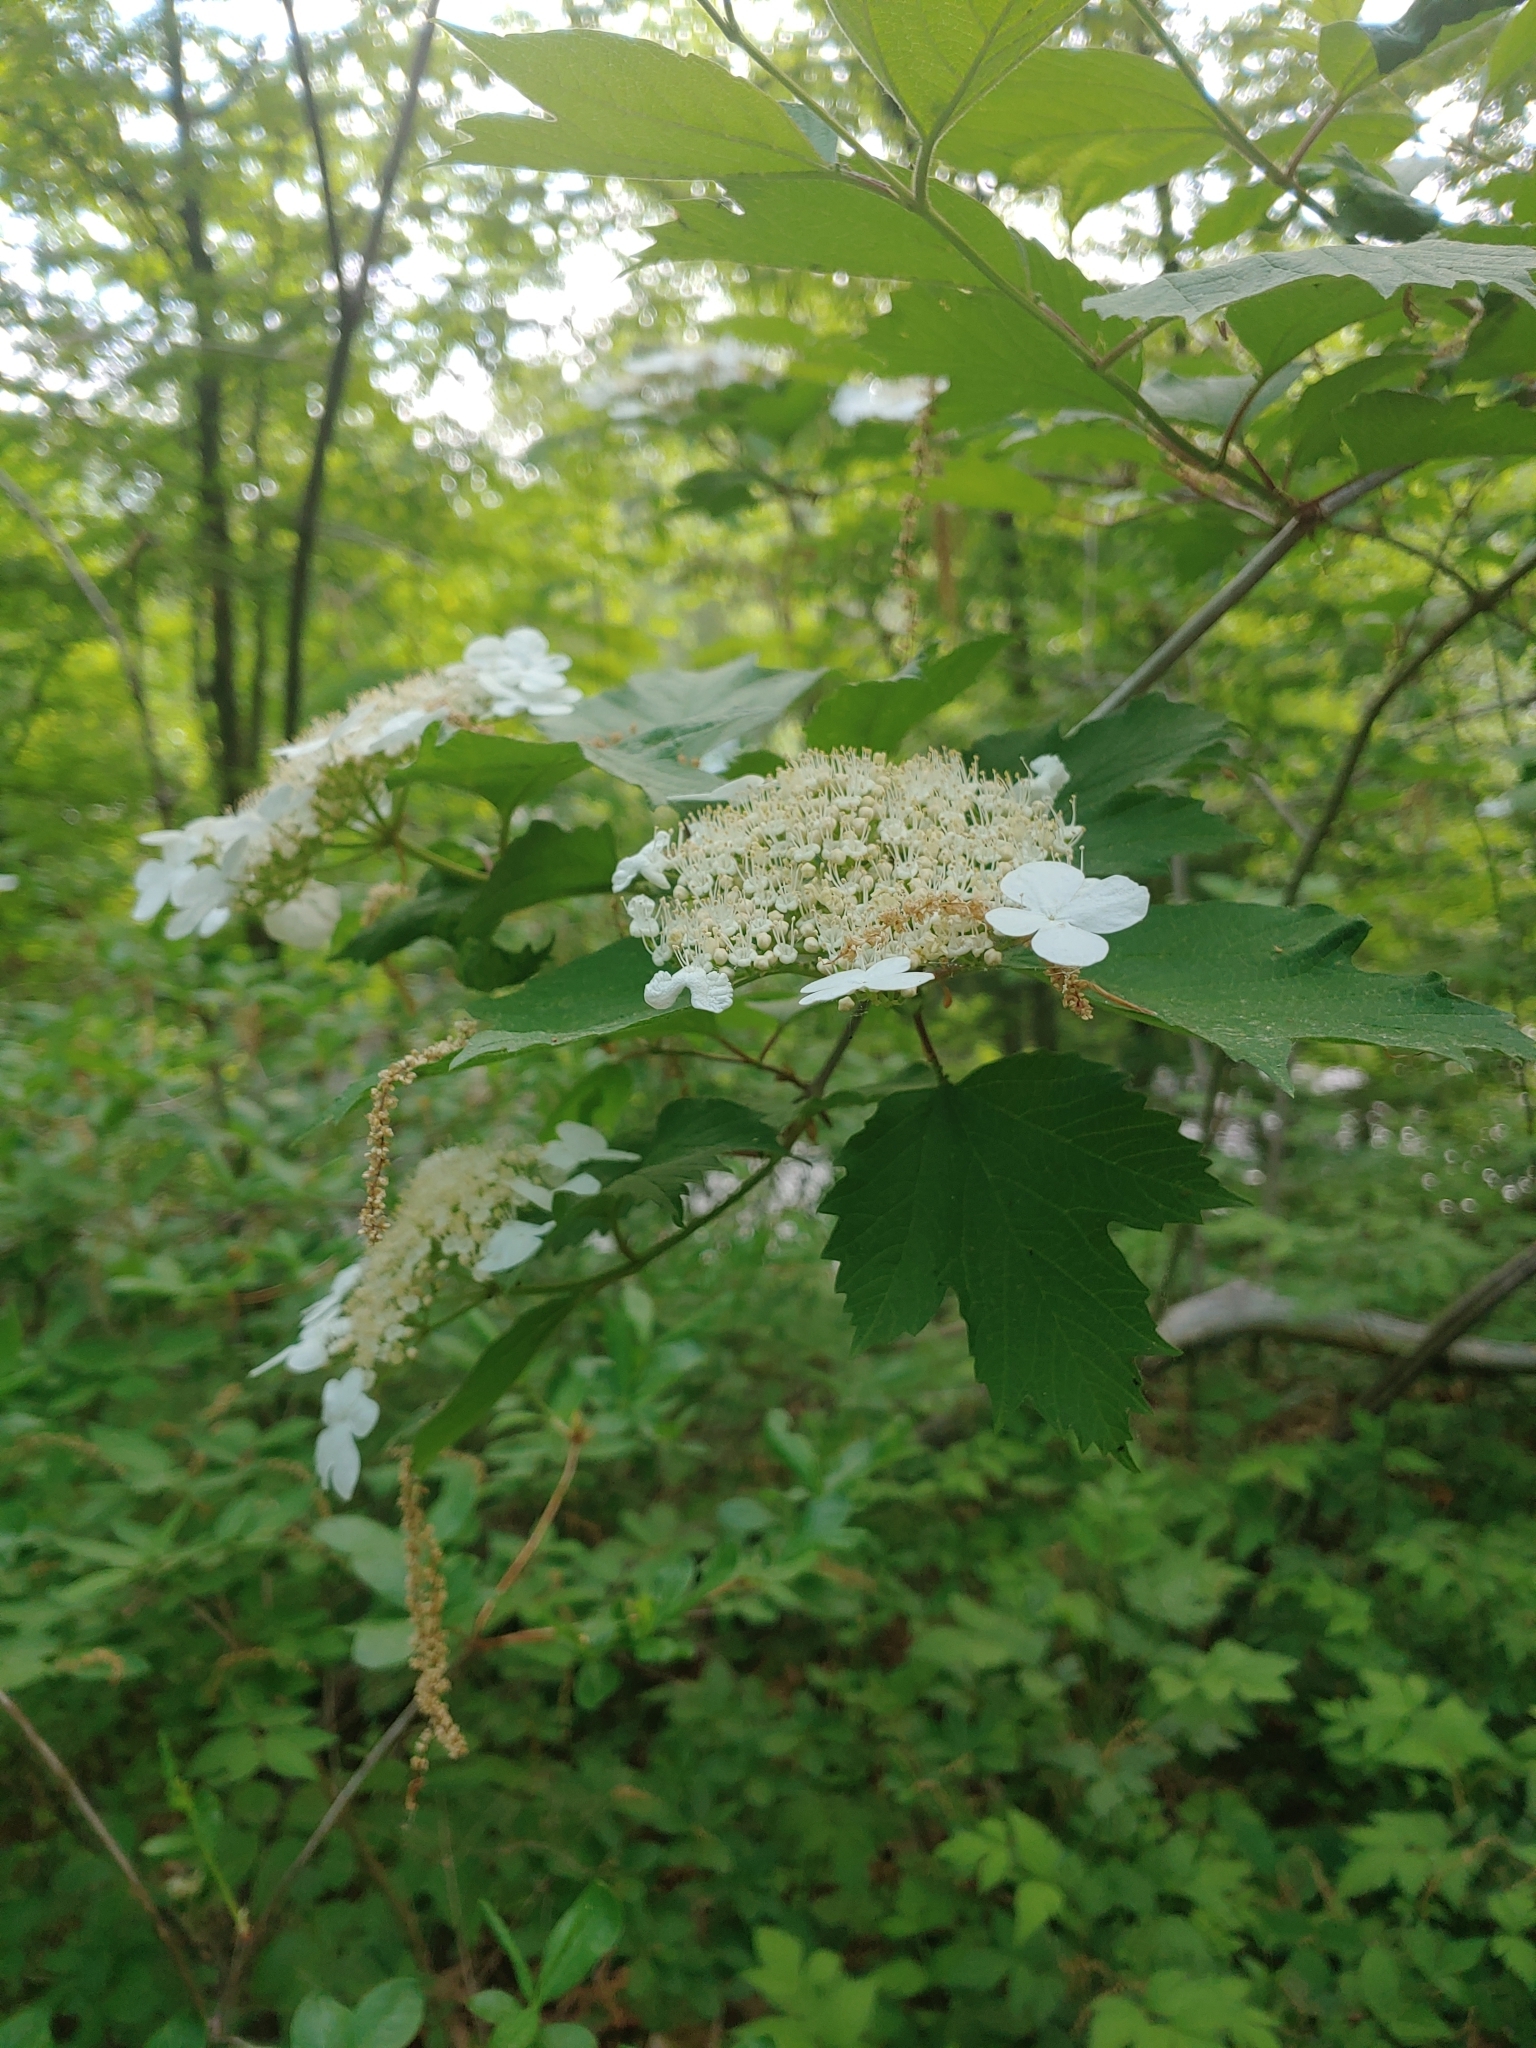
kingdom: Plantae
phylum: Tracheophyta
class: Magnoliopsida
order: Dipsacales
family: Viburnaceae
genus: Viburnum
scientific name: Viburnum opulus
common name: Guelder-rose
